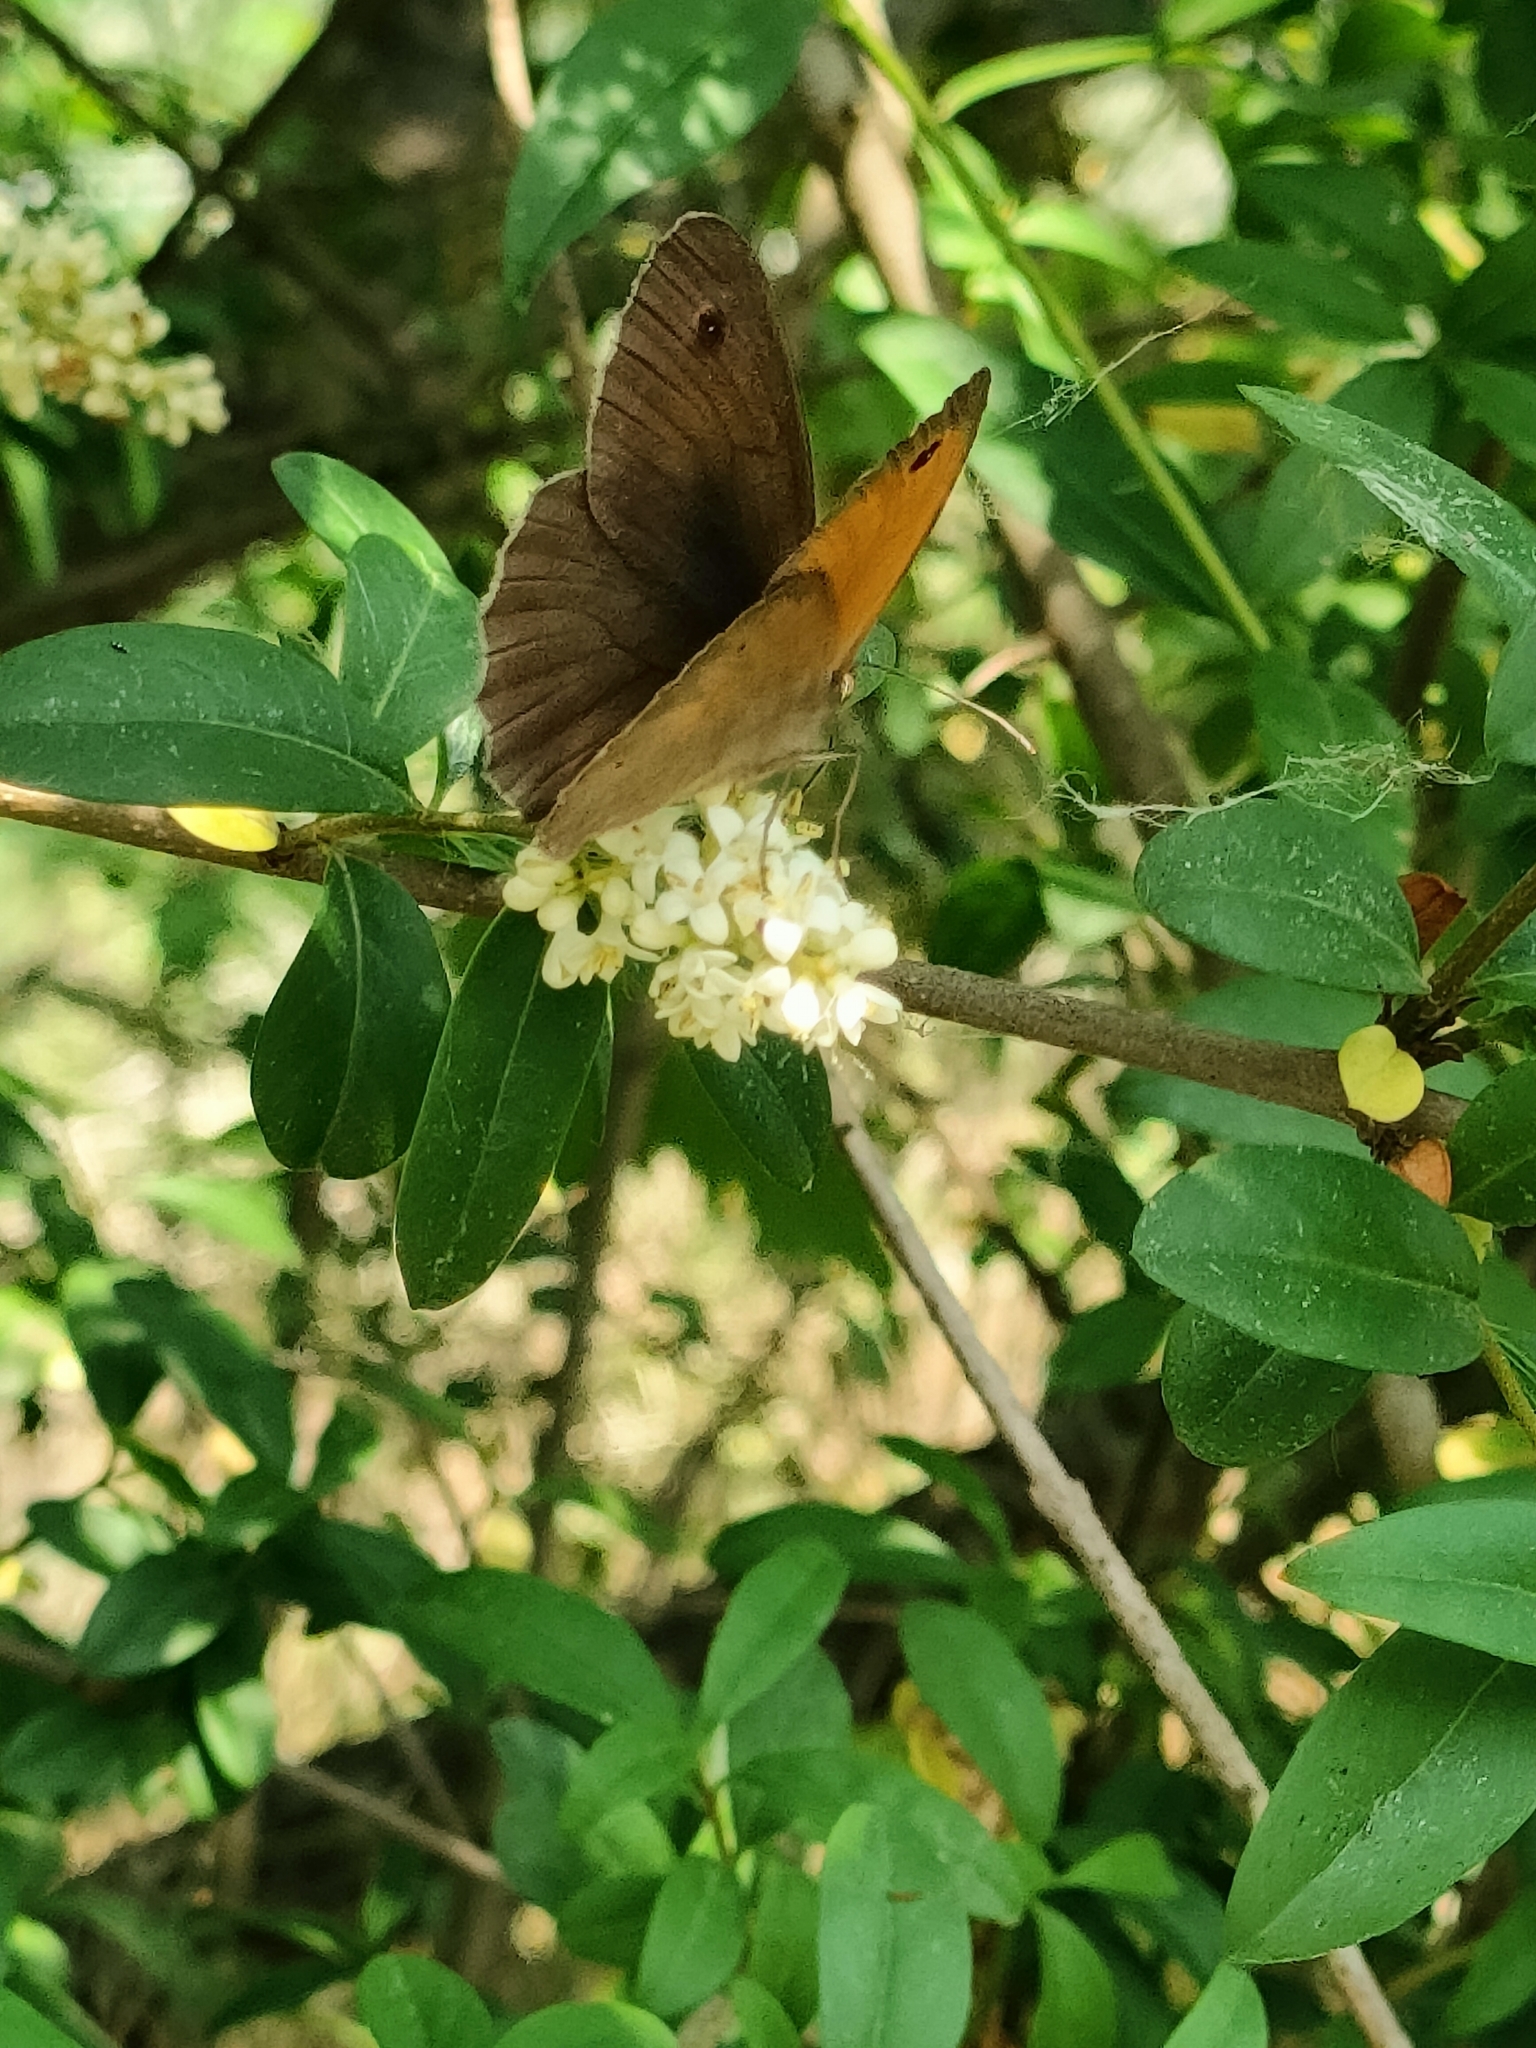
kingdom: Animalia
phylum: Arthropoda
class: Insecta
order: Lepidoptera
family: Nymphalidae
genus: Maniola
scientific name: Maniola jurtina
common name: Meadow brown
